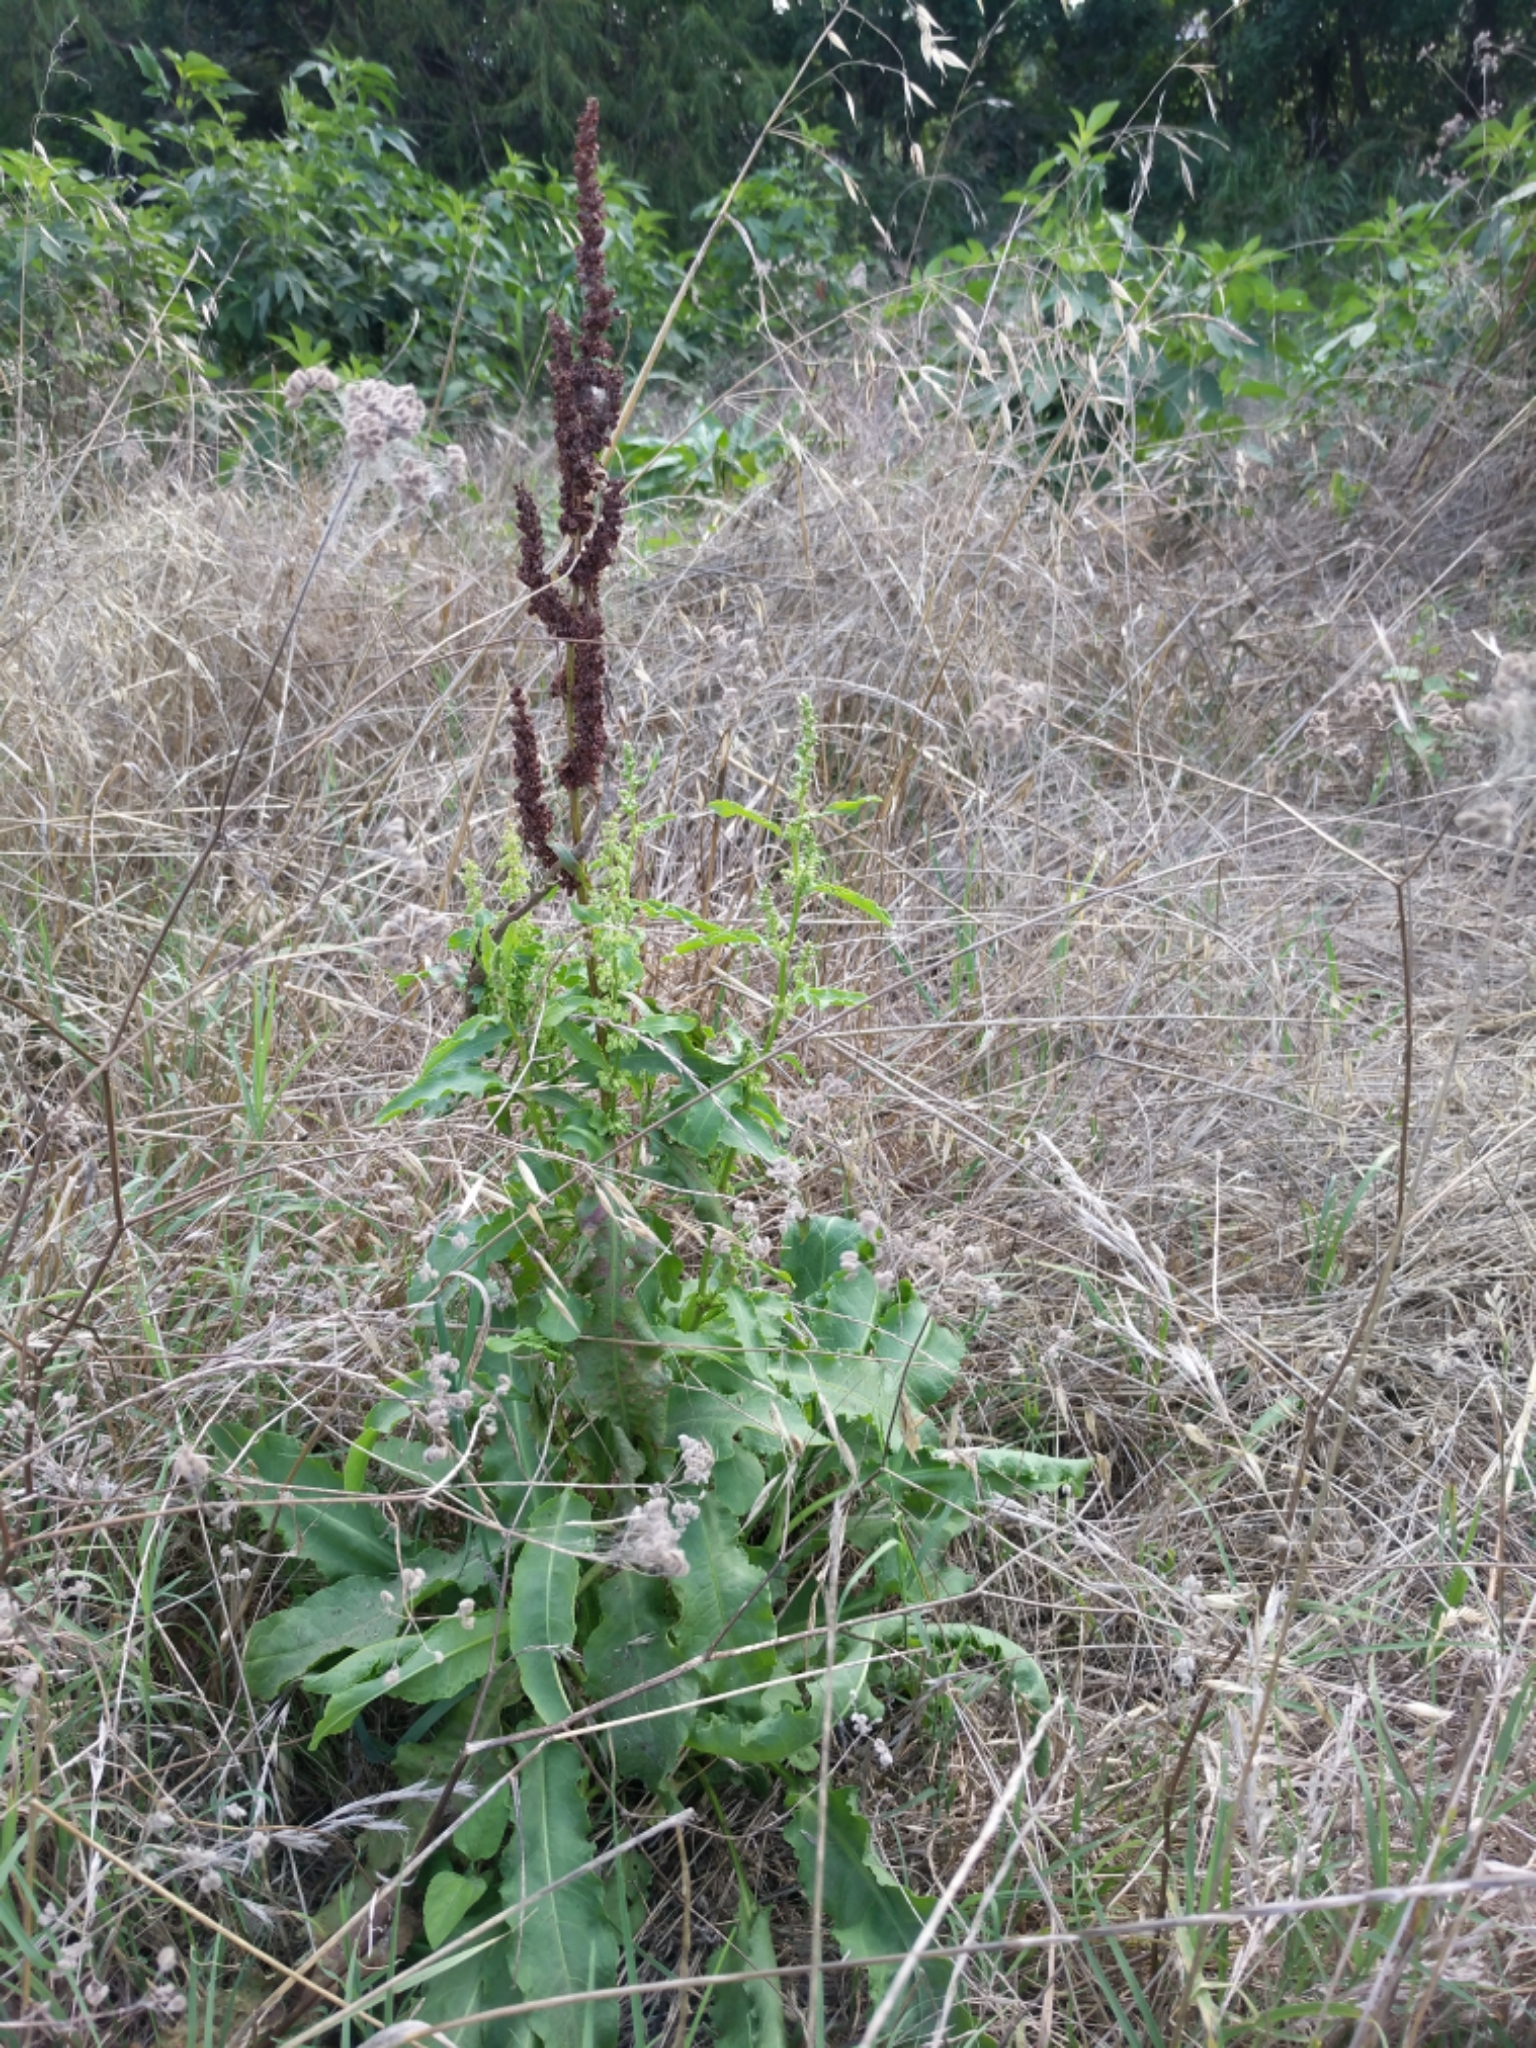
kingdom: Plantae
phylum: Tracheophyta
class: Magnoliopsida
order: Caryophyllales
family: Polygonaceae
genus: Rumex
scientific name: Rumex crispus
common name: Curled dock
